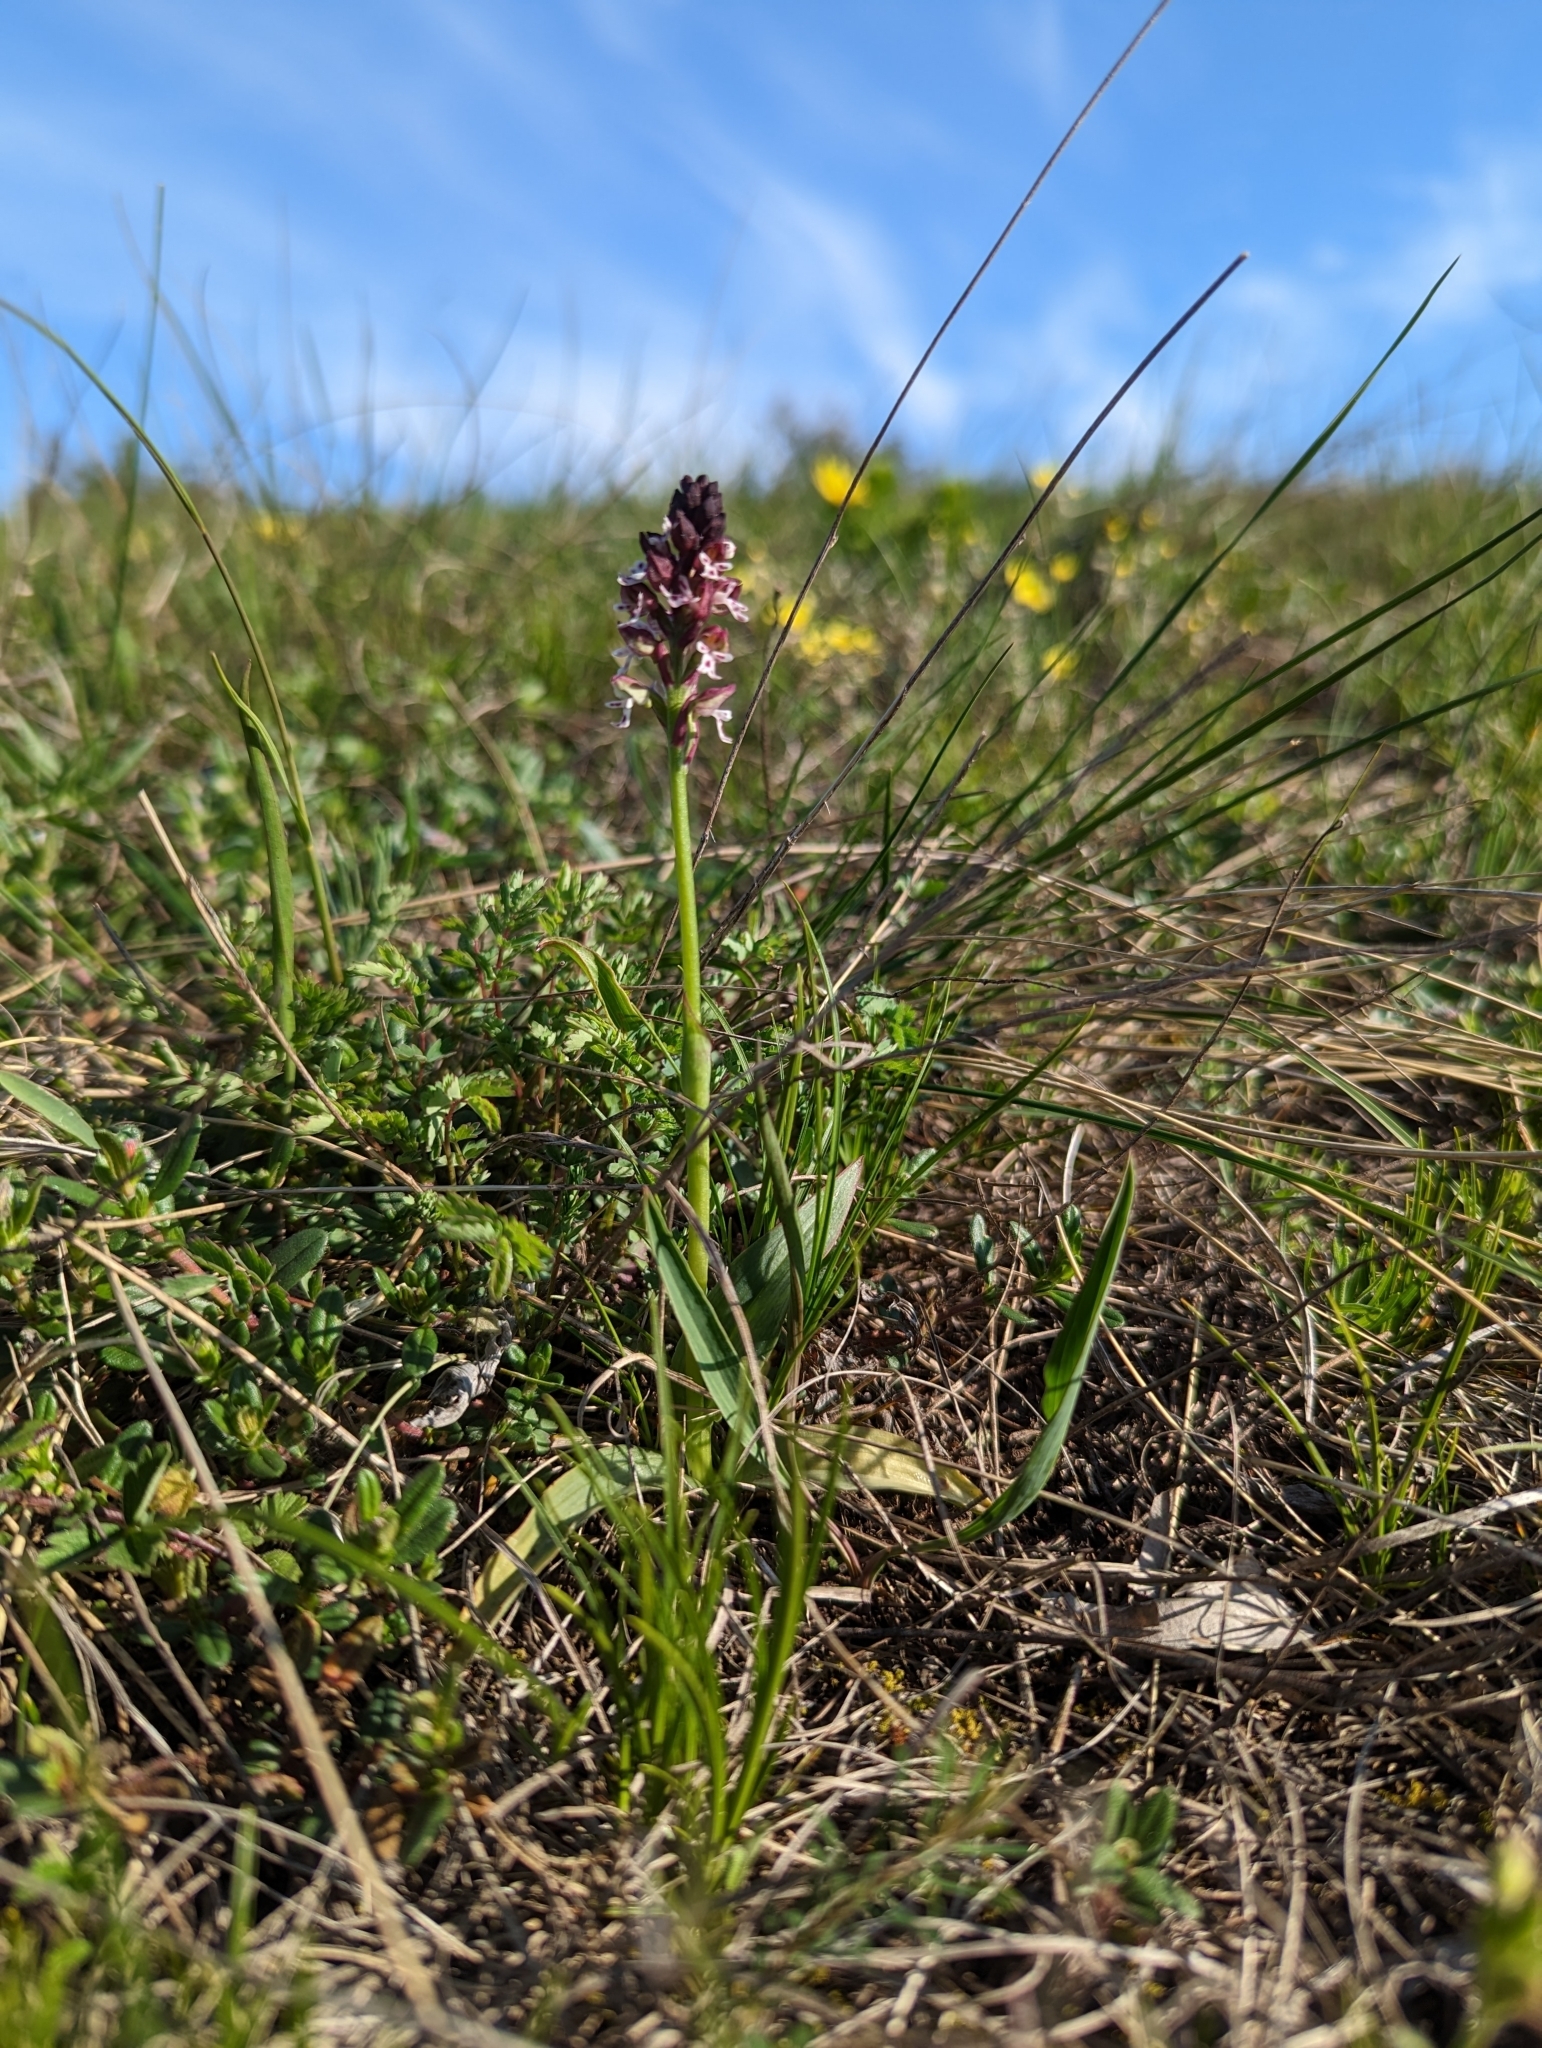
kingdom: Plantae
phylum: Tracheophyta
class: Liliopsida
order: Asparagales
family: Orchidaceae
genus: Neotinea
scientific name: Neotinea ustulata
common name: Burnt orchid
